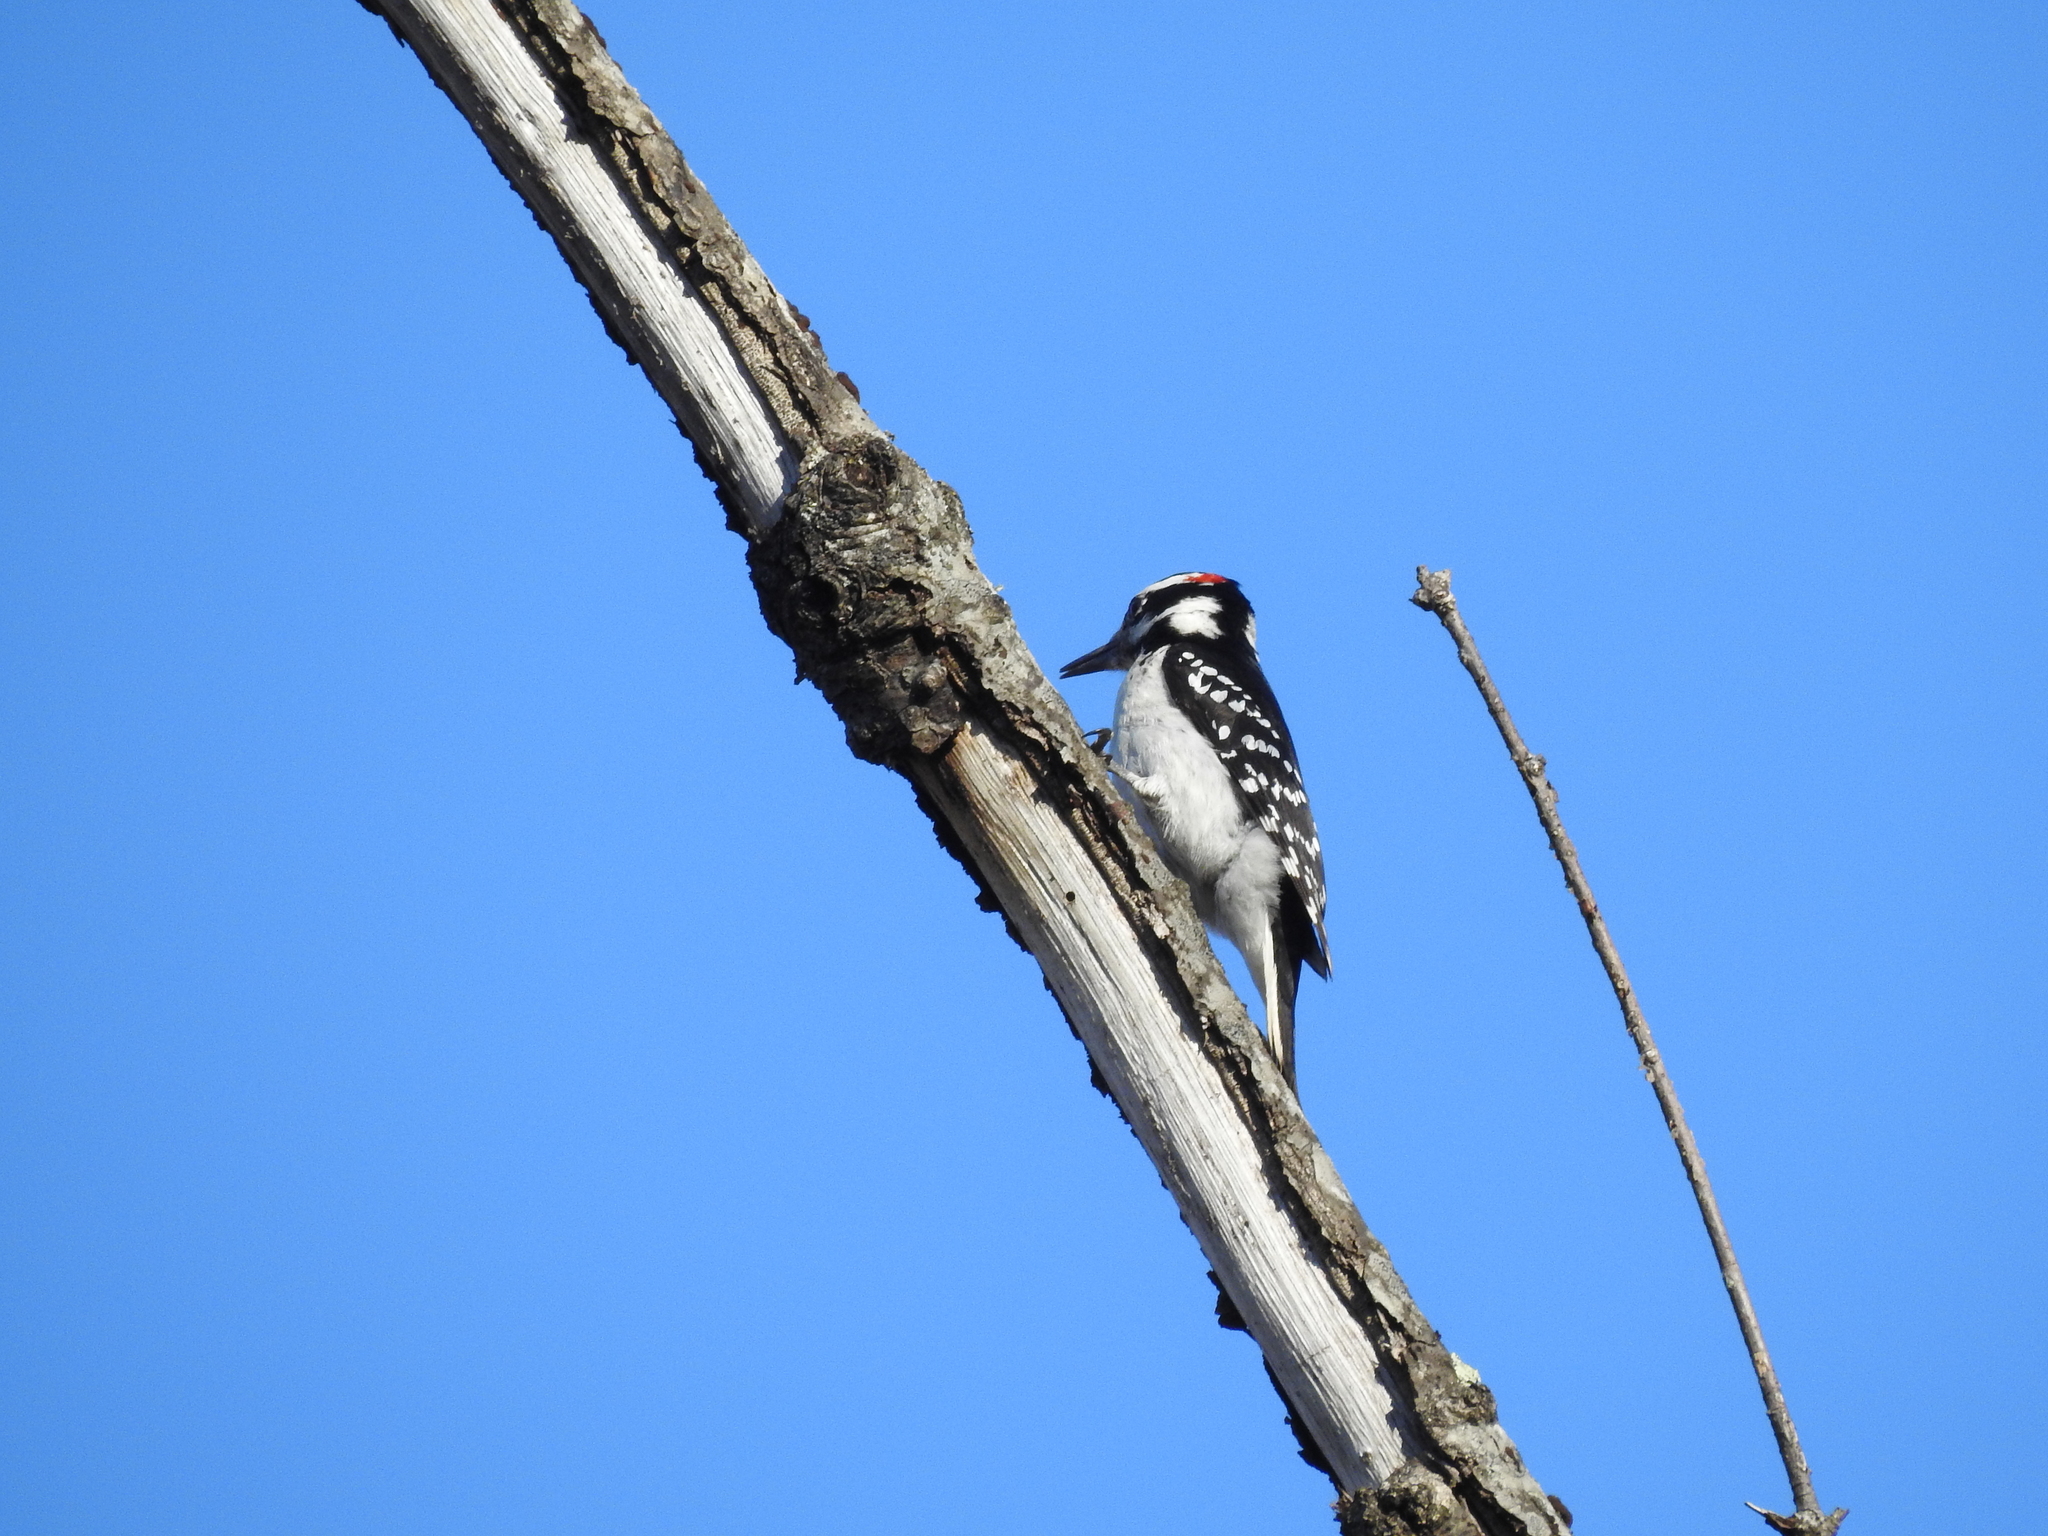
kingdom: Animalia
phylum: Chordata
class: Aves
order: Piciformes
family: Picidae
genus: Leuconotopicus
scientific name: Leuconotopicus villosus
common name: Hairy woodpecker
